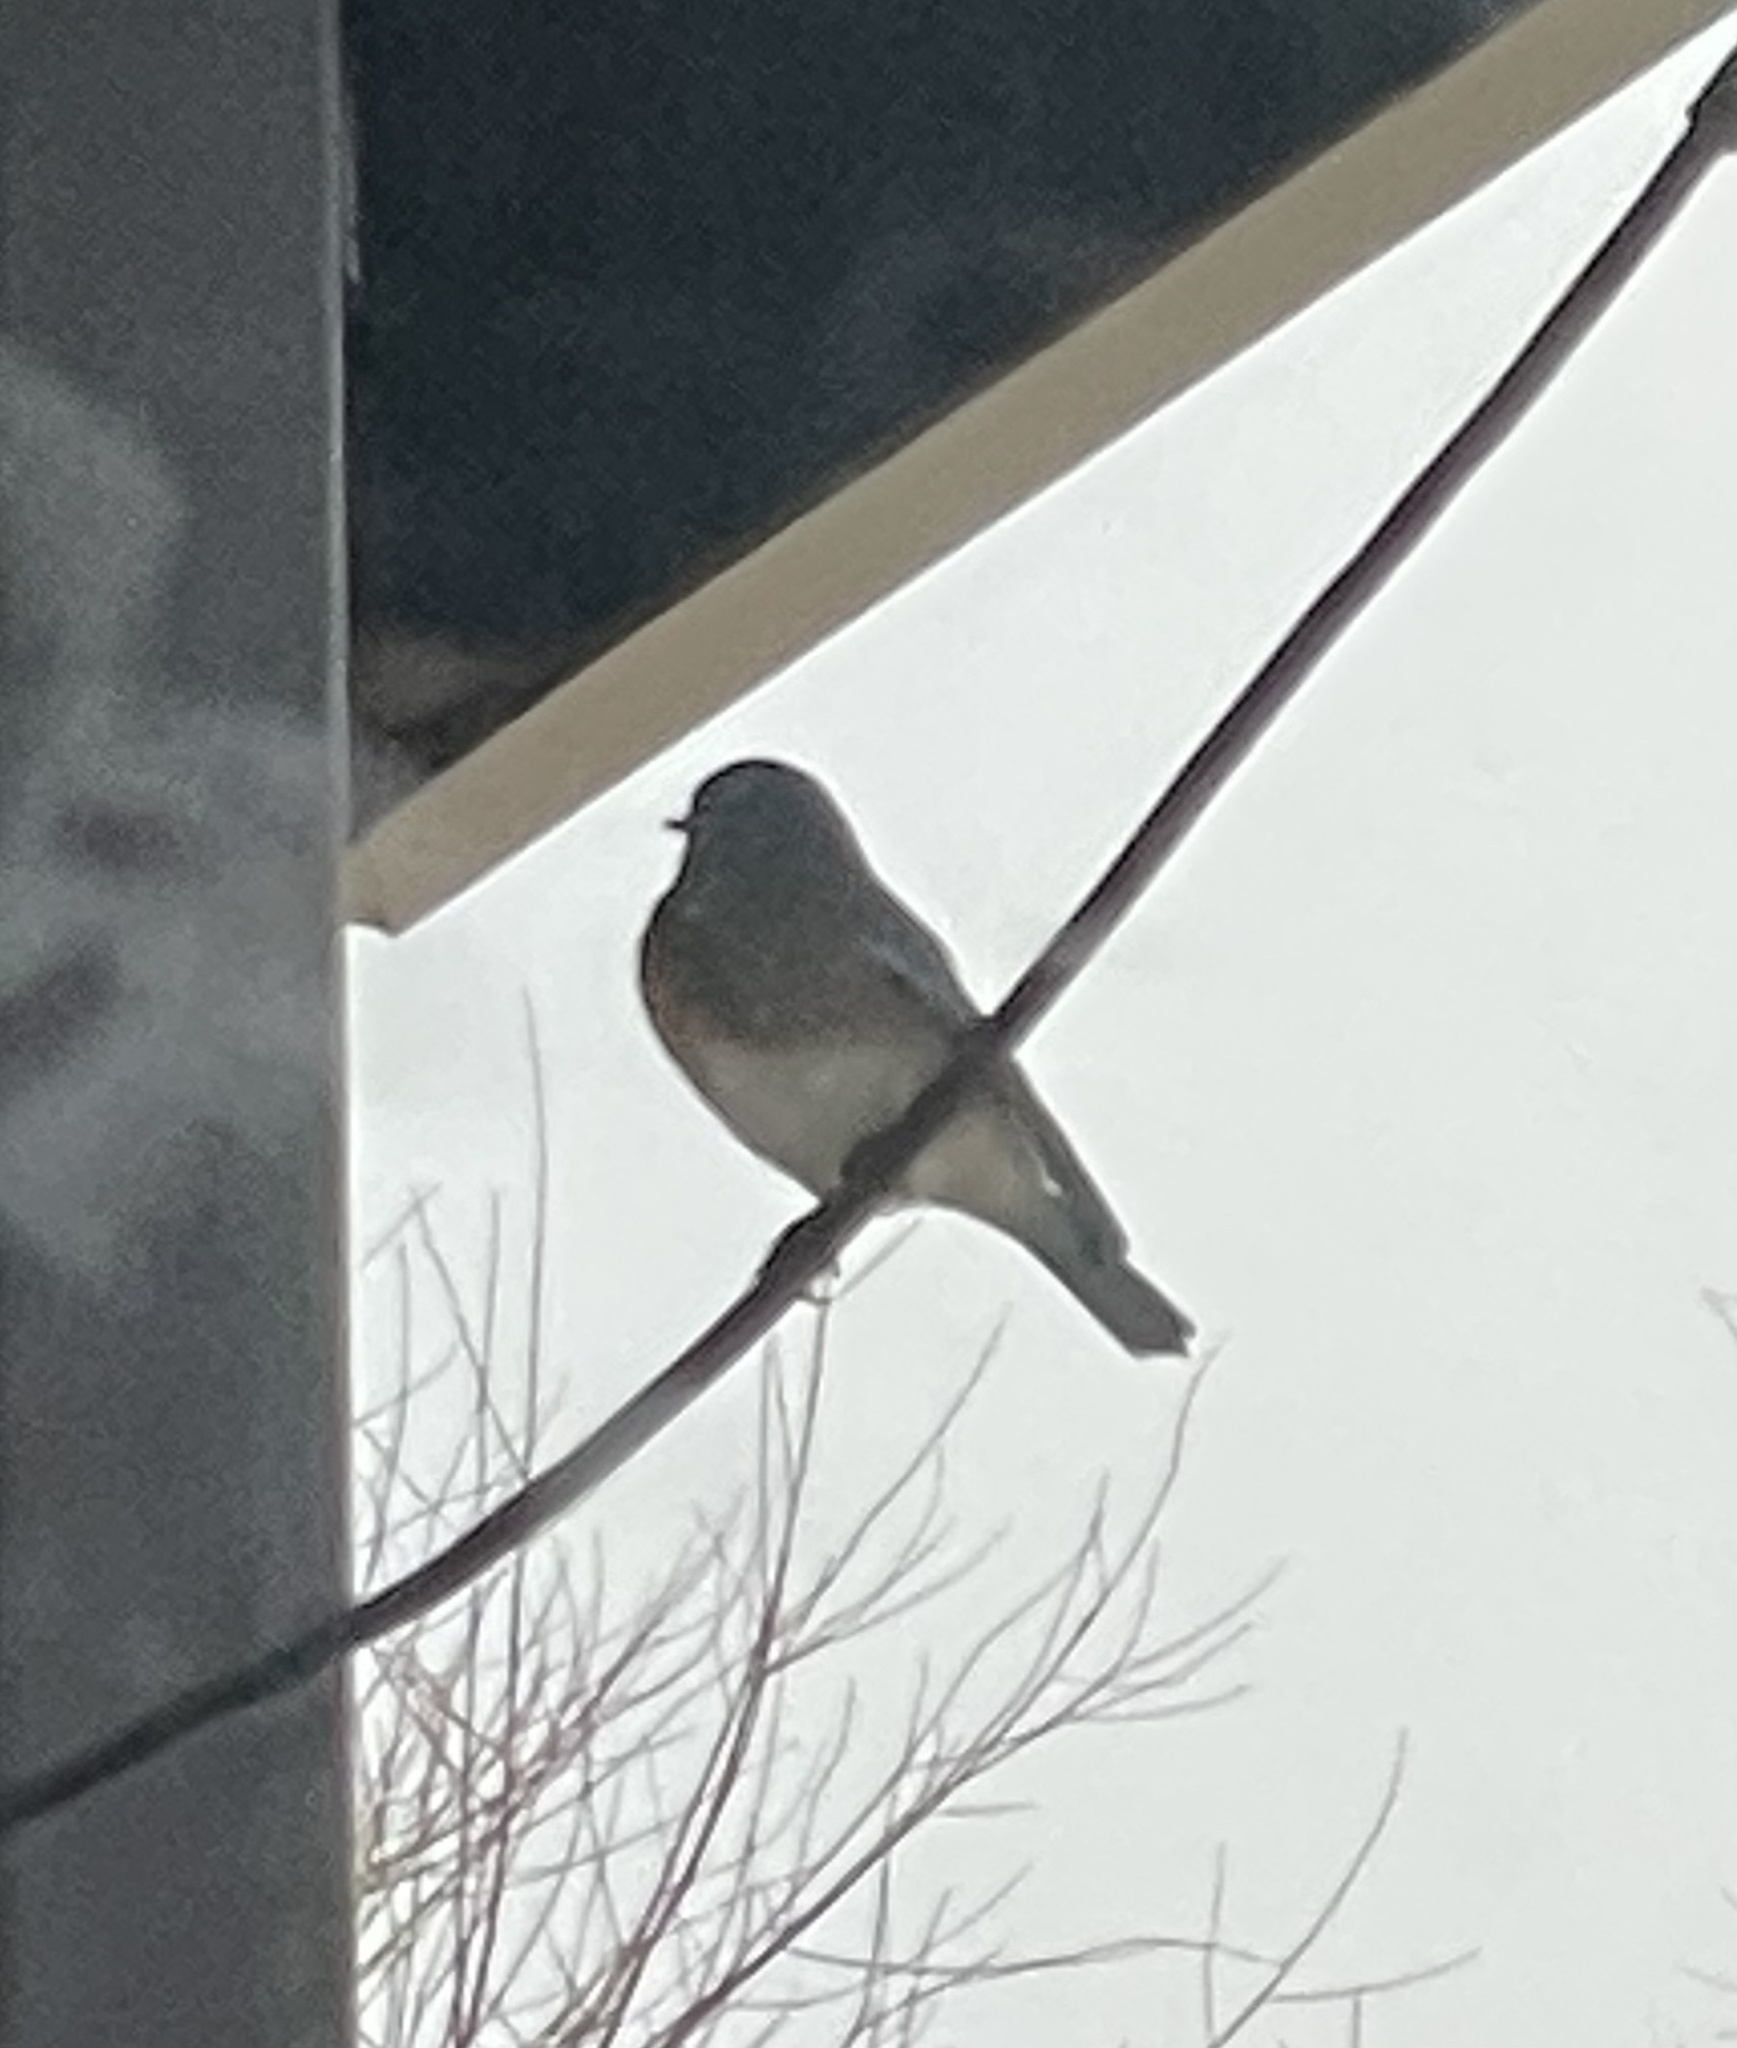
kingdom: Animalia
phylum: Chordata
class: Aves
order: Passeriformes
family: Turdidae
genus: Sialia
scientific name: Sialia sialis
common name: Eastern bluebird
